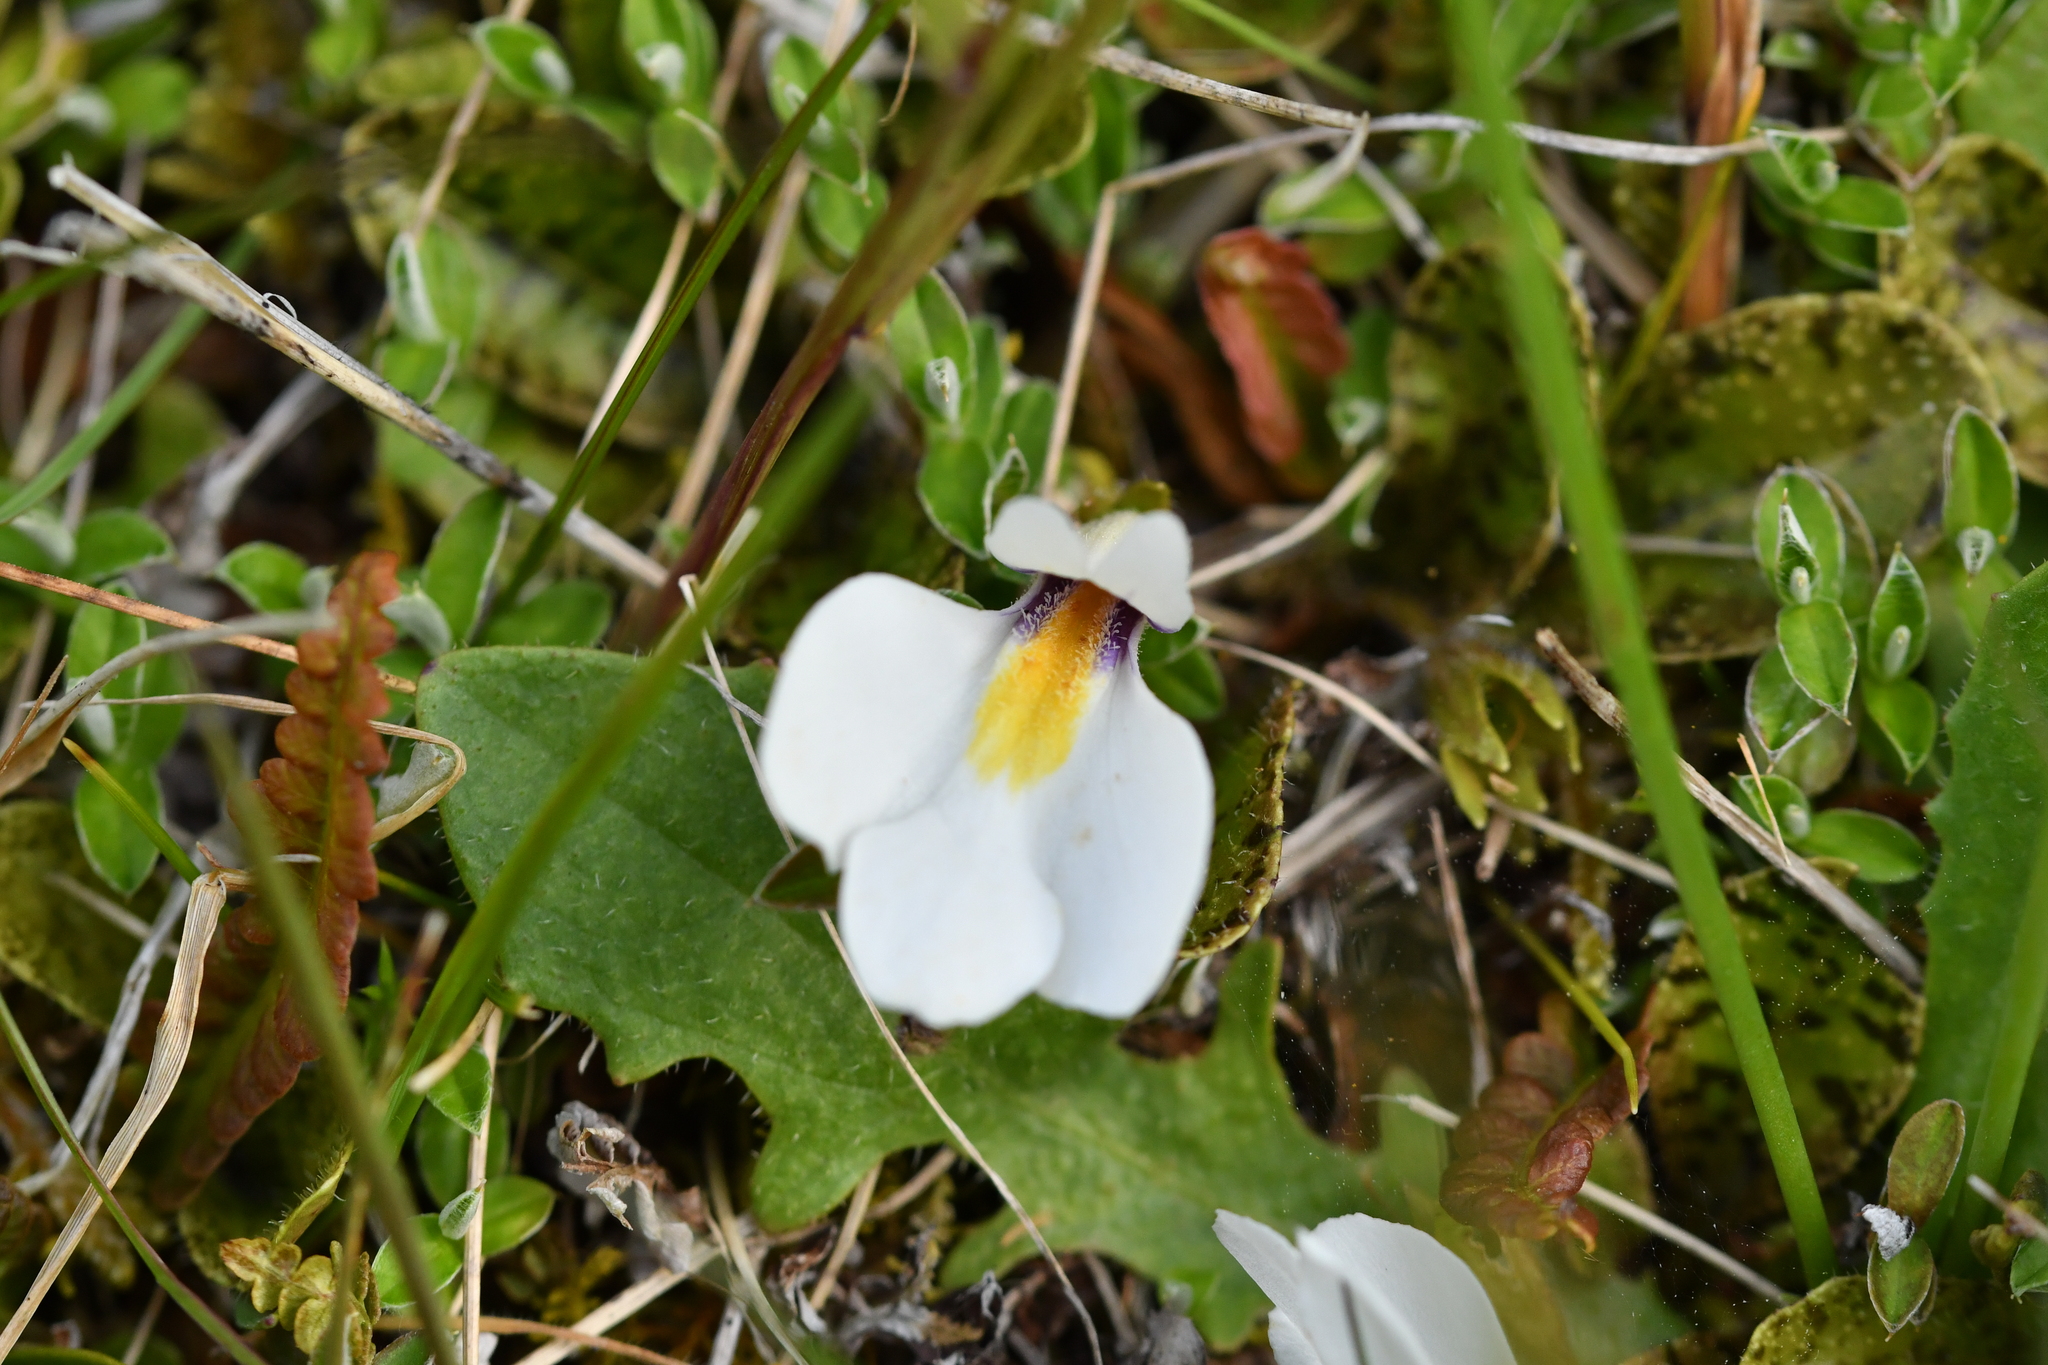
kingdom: Plantae
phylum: Tracheophyta
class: Magnoliopsida
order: Lamiales
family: Mazaceae
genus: Mazus
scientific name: Mazus radicans
